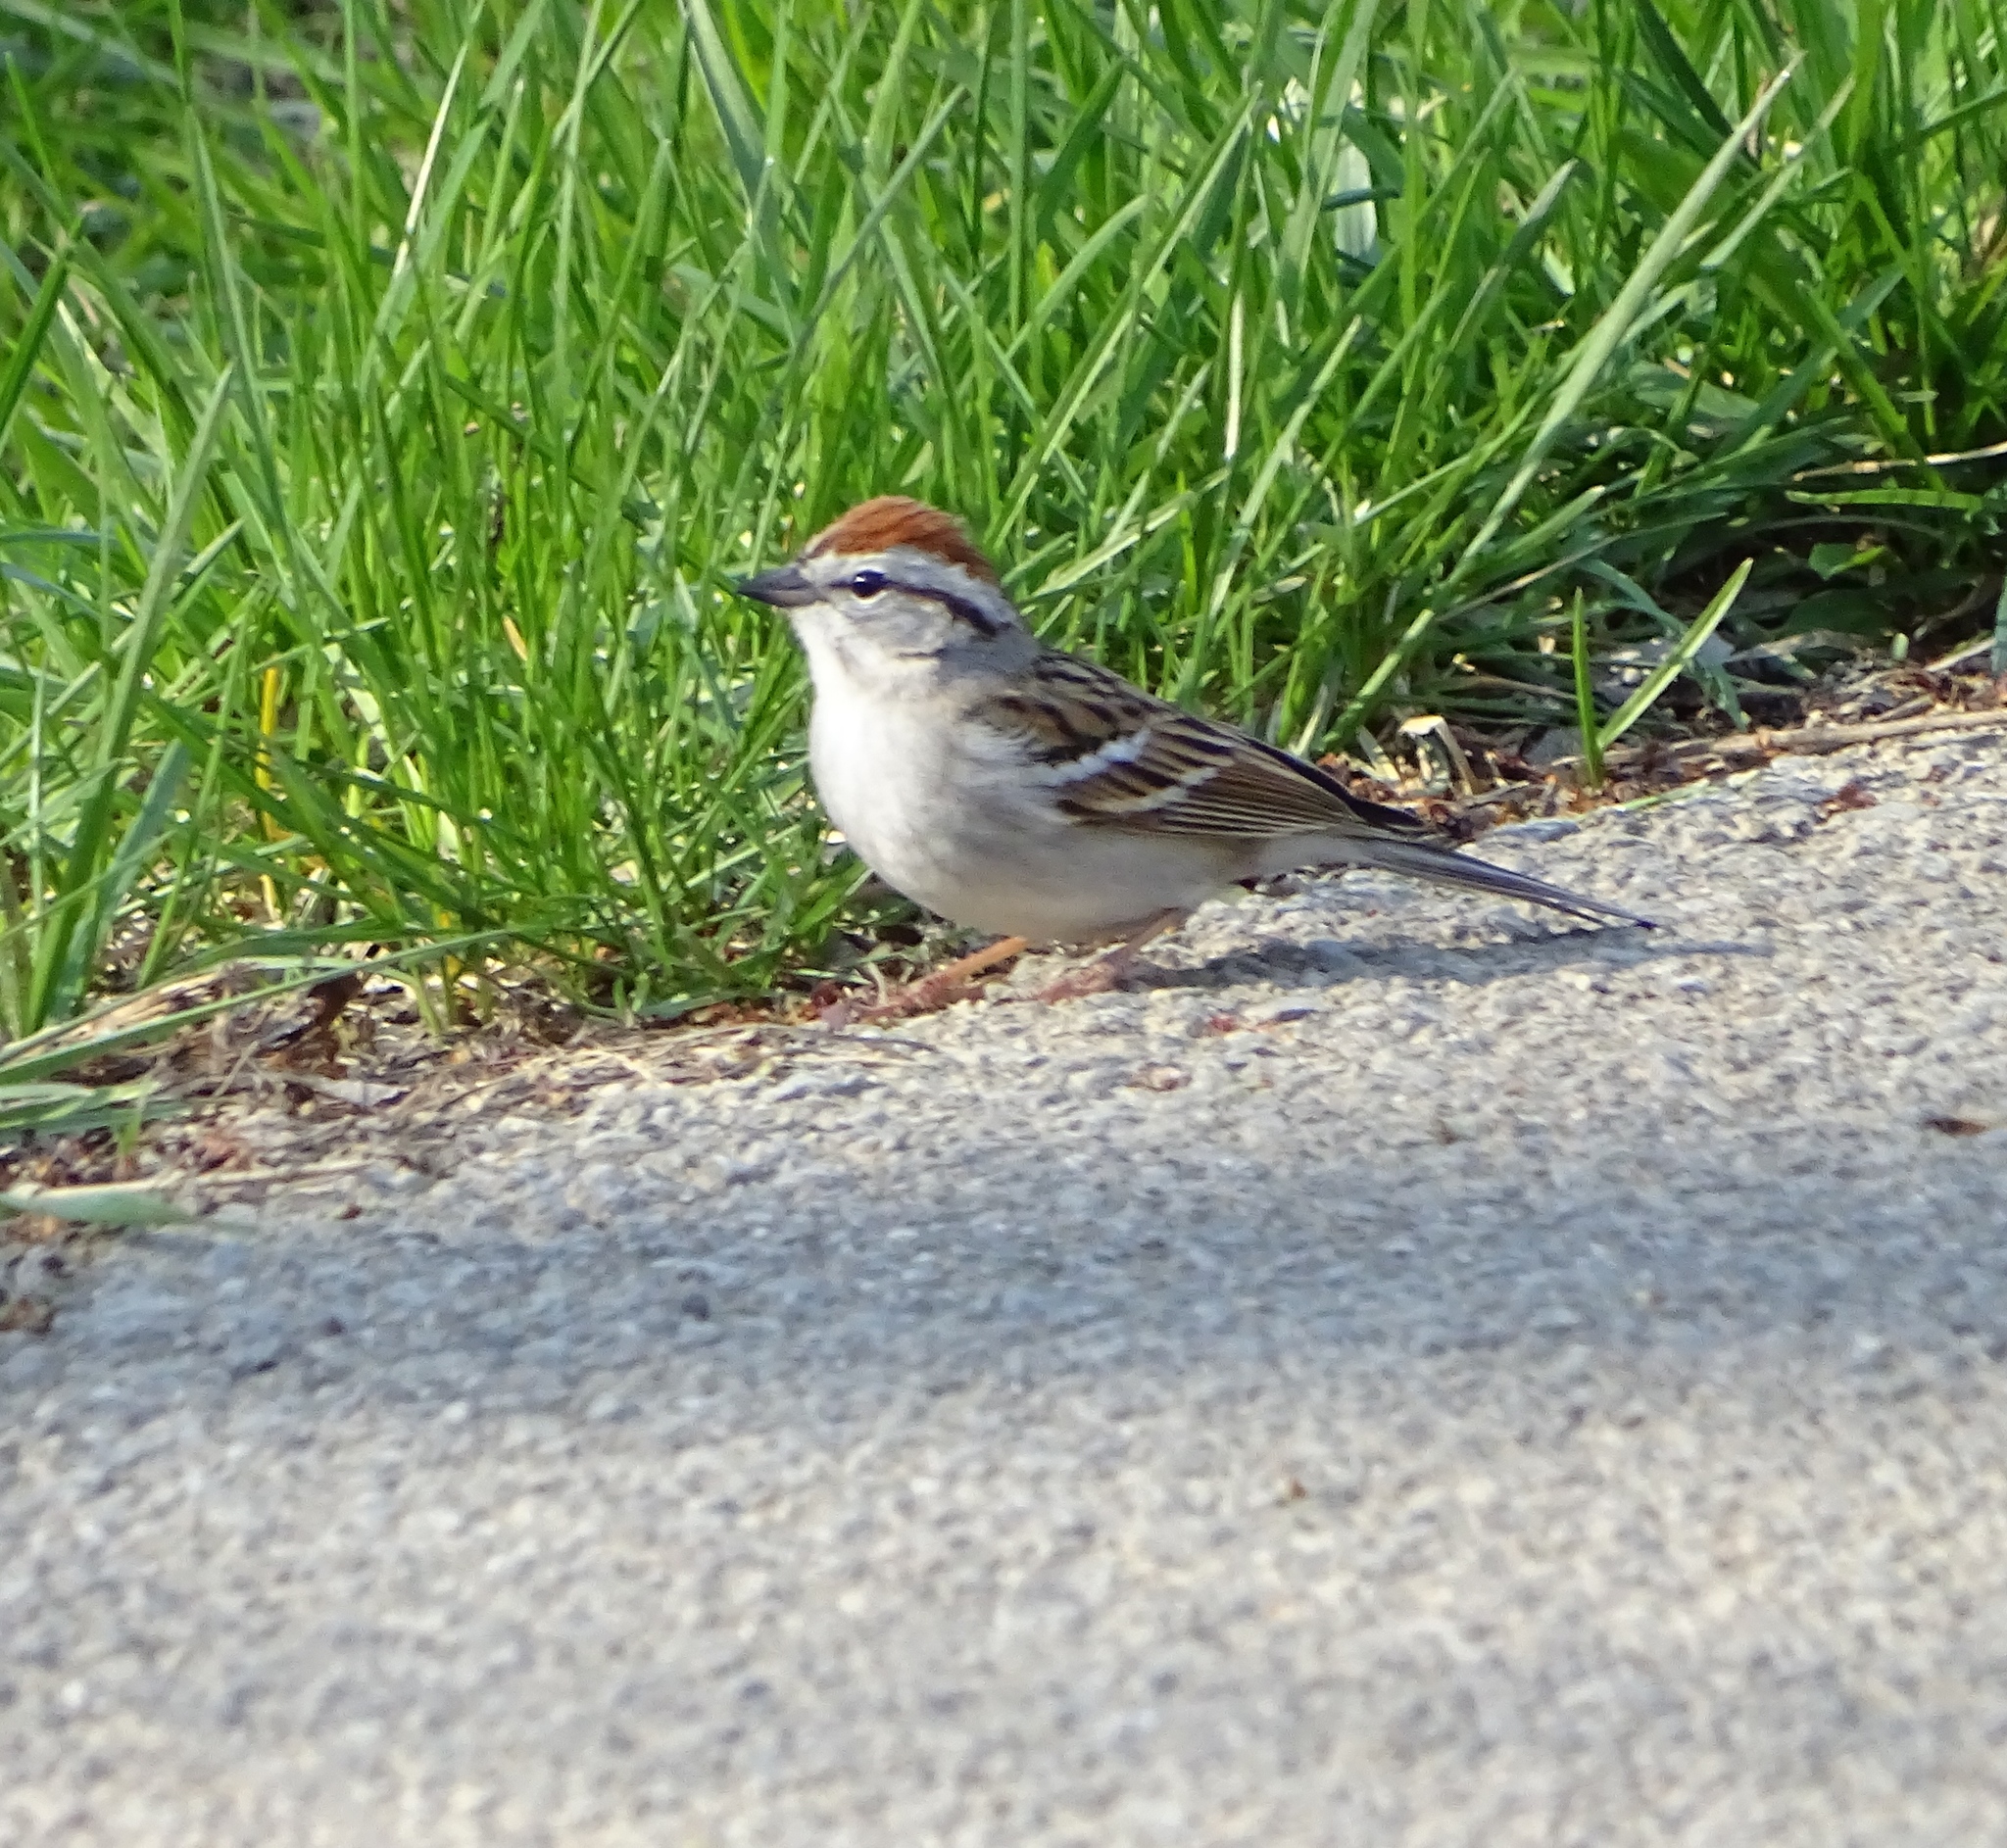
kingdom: Animalia
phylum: Chordata
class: Aves
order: Passeriformes
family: Passerellidae
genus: Spizella
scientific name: Spizella passerina
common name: Chipping sparrow
